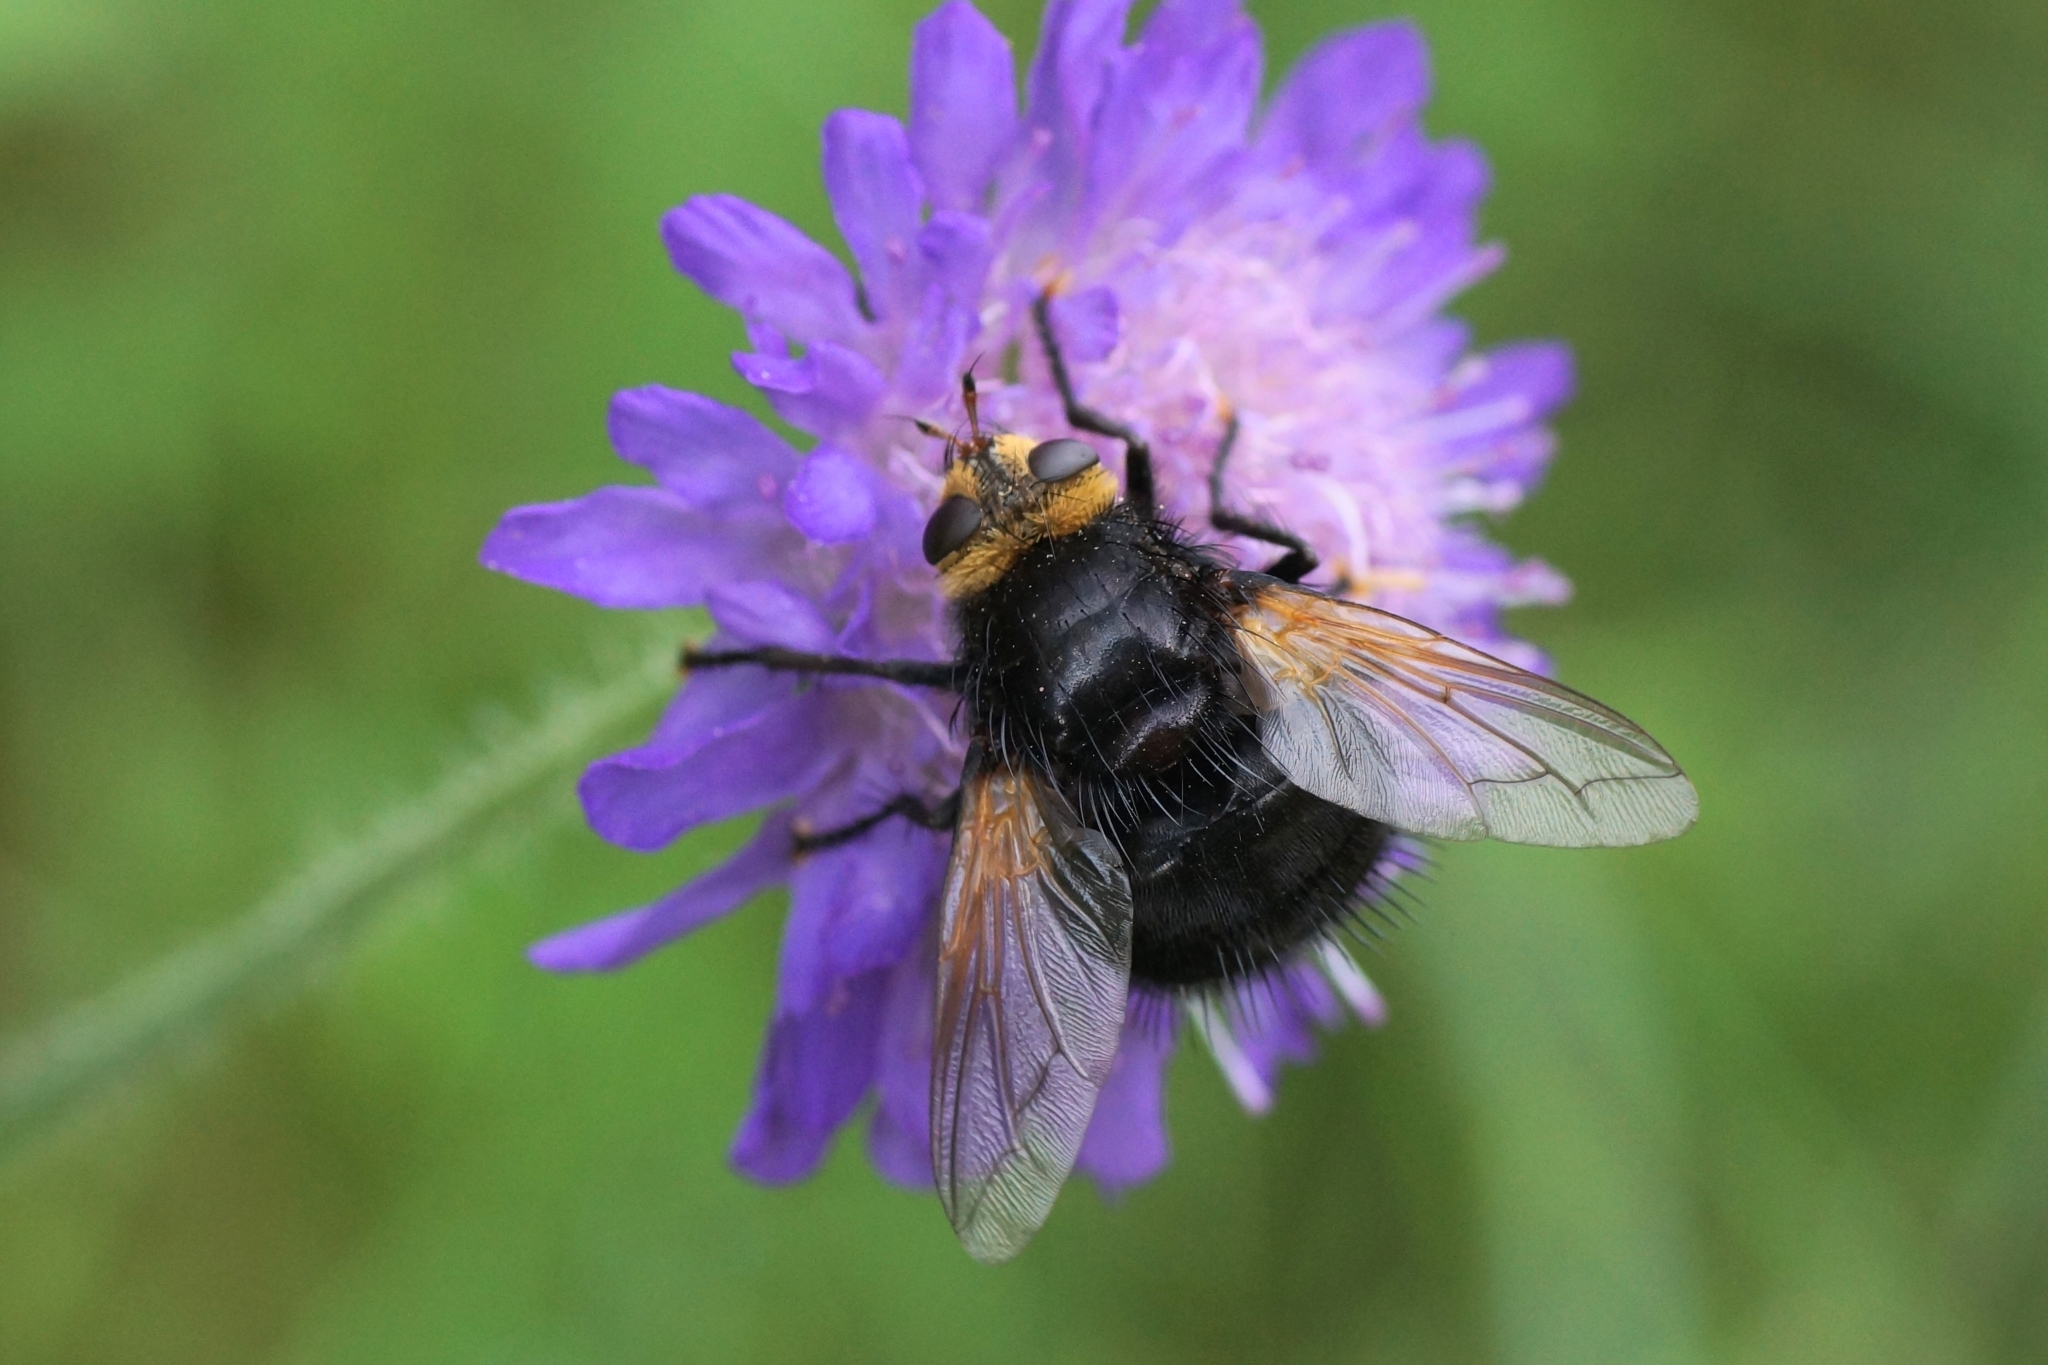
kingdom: Animalia
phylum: Arthropoda
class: Insecta
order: Diptera
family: Tachinidae
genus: Tachina
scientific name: Tachina grossa
